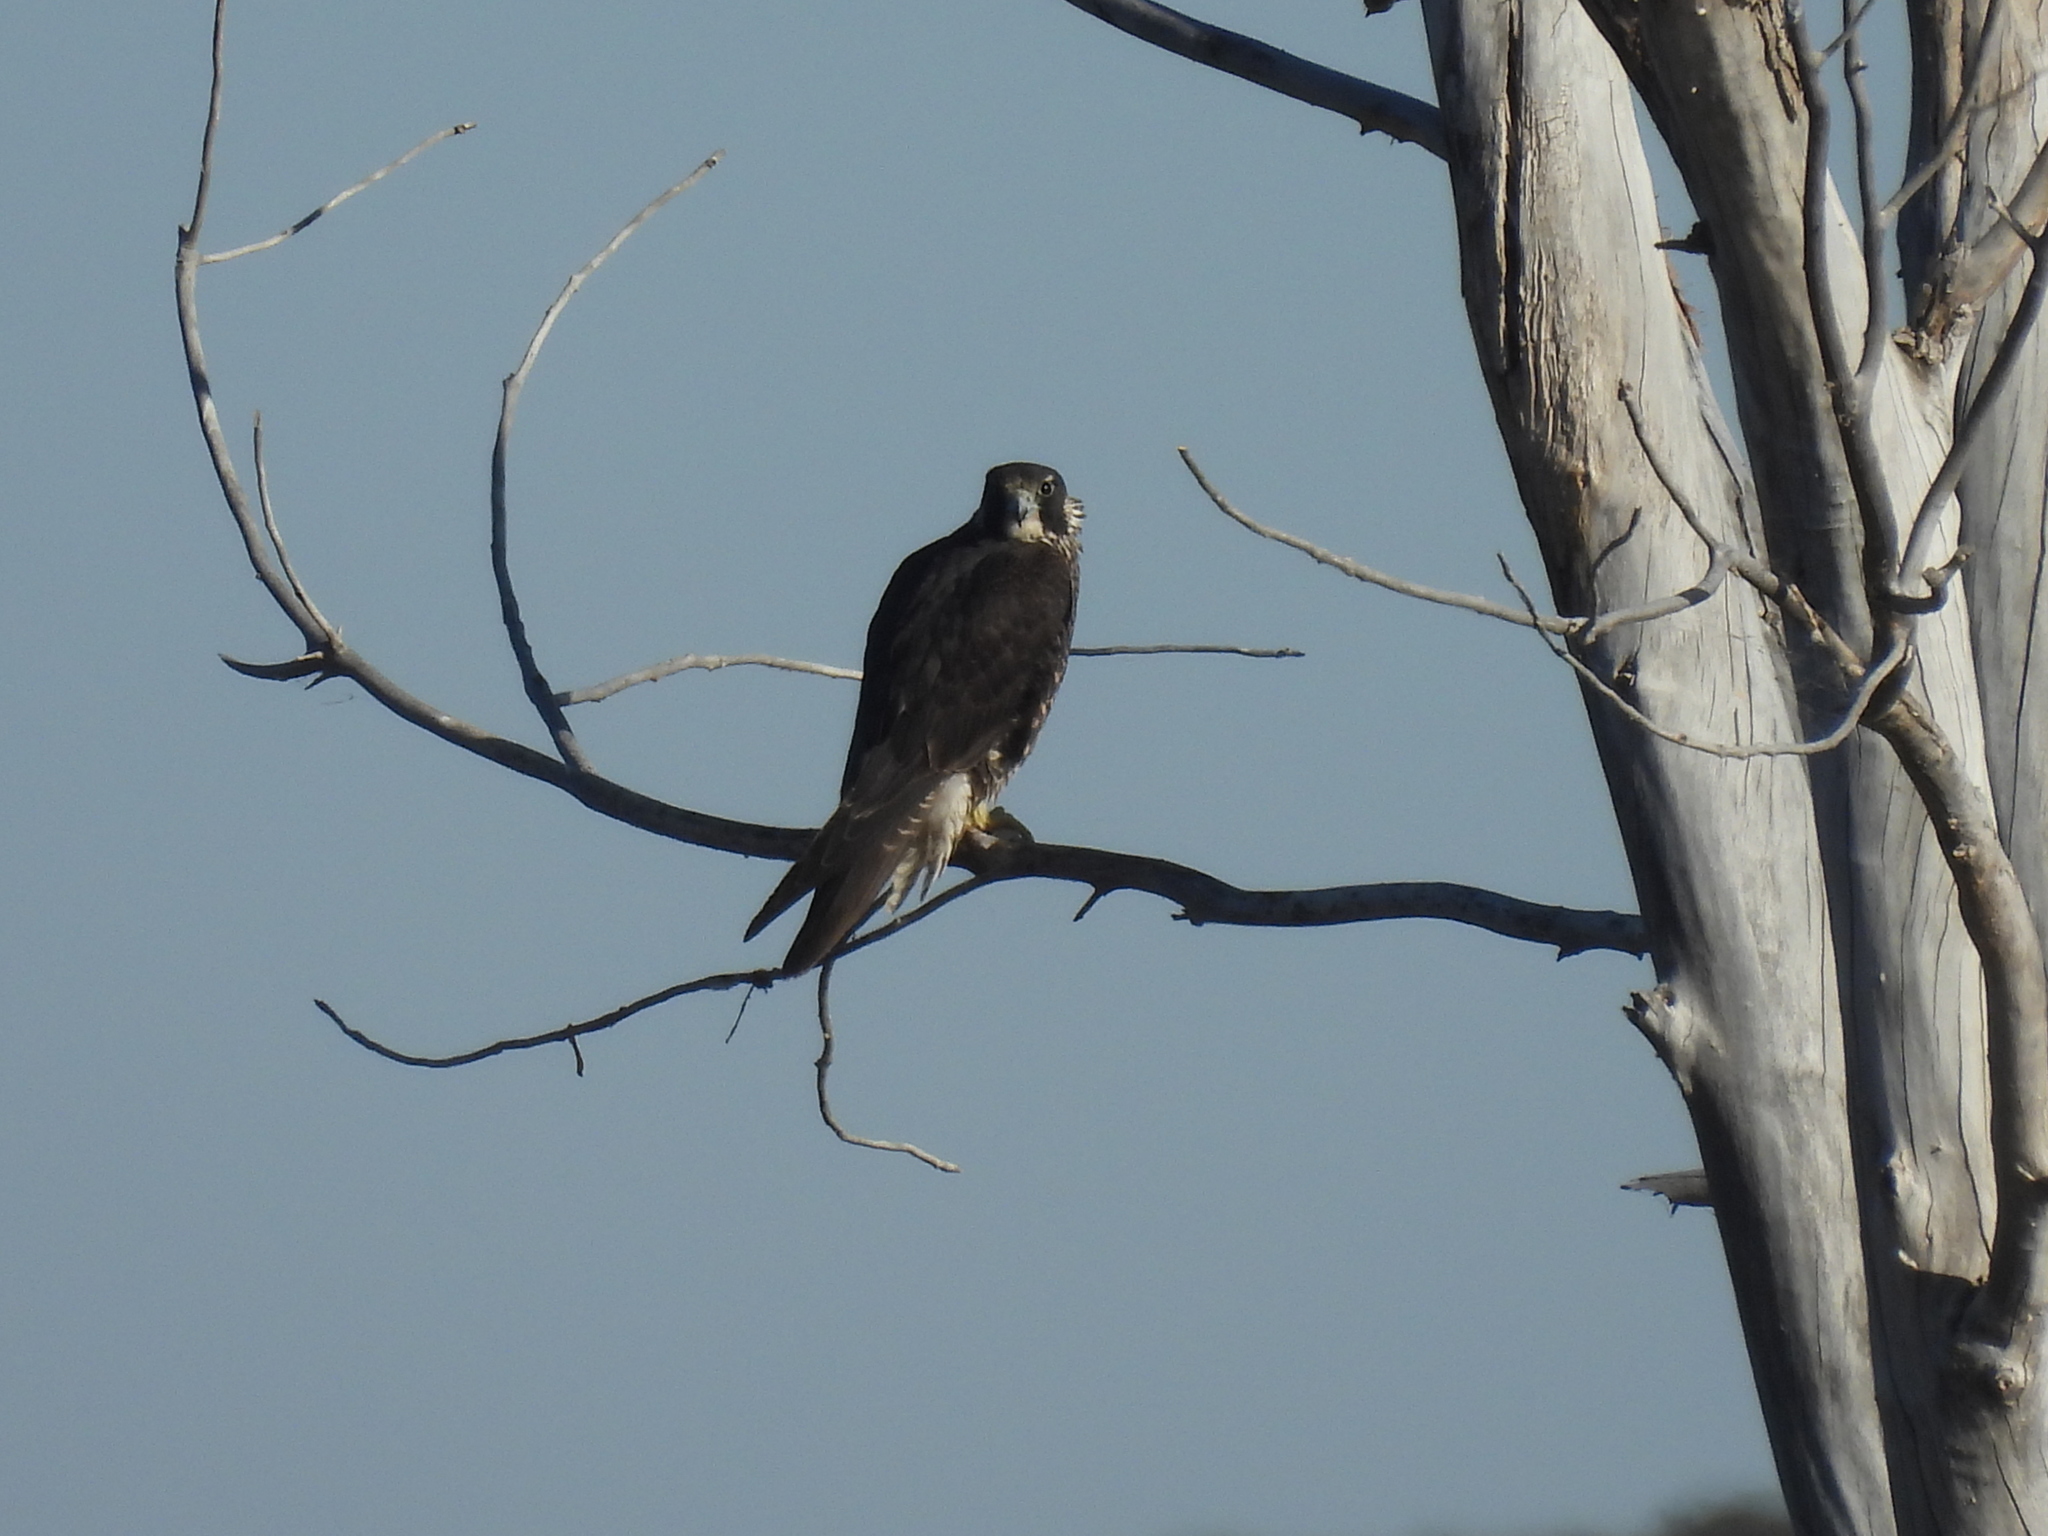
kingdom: Animalia
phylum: Chordata
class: Aves
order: Falconiformes
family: Falconidae
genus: Falco
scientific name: Falco peregrinus
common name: Peregrine falcon
